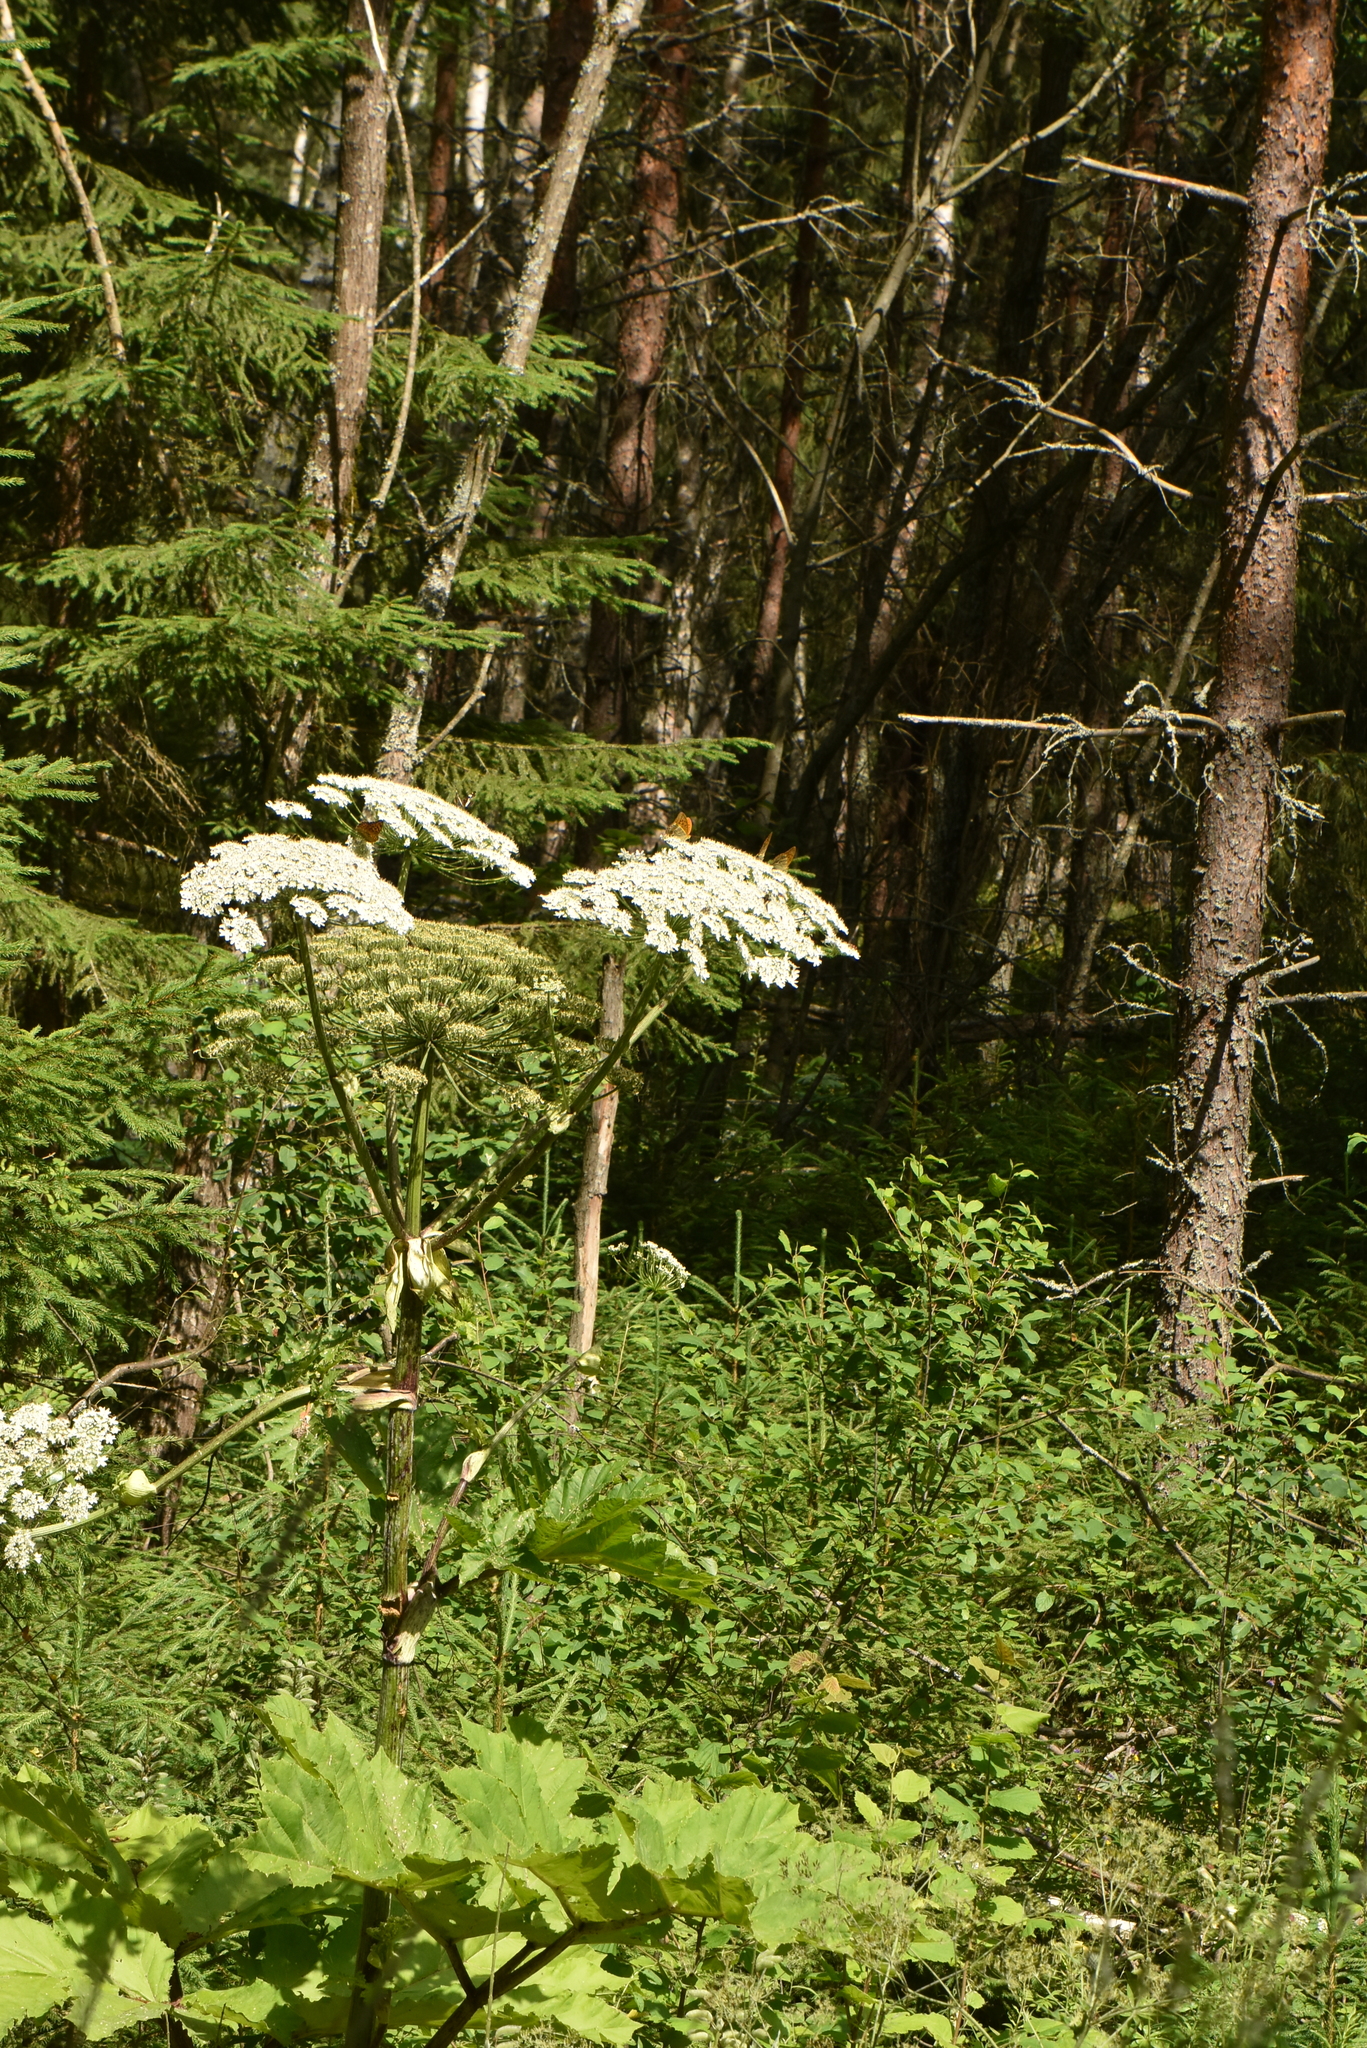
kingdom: Plantae
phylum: Tracheophyta
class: Magnoliopsida
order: Apiales
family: Apiaceae
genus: Heracleum
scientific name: Heracleum sosnowskyi
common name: Sosnowsky's hogweed
